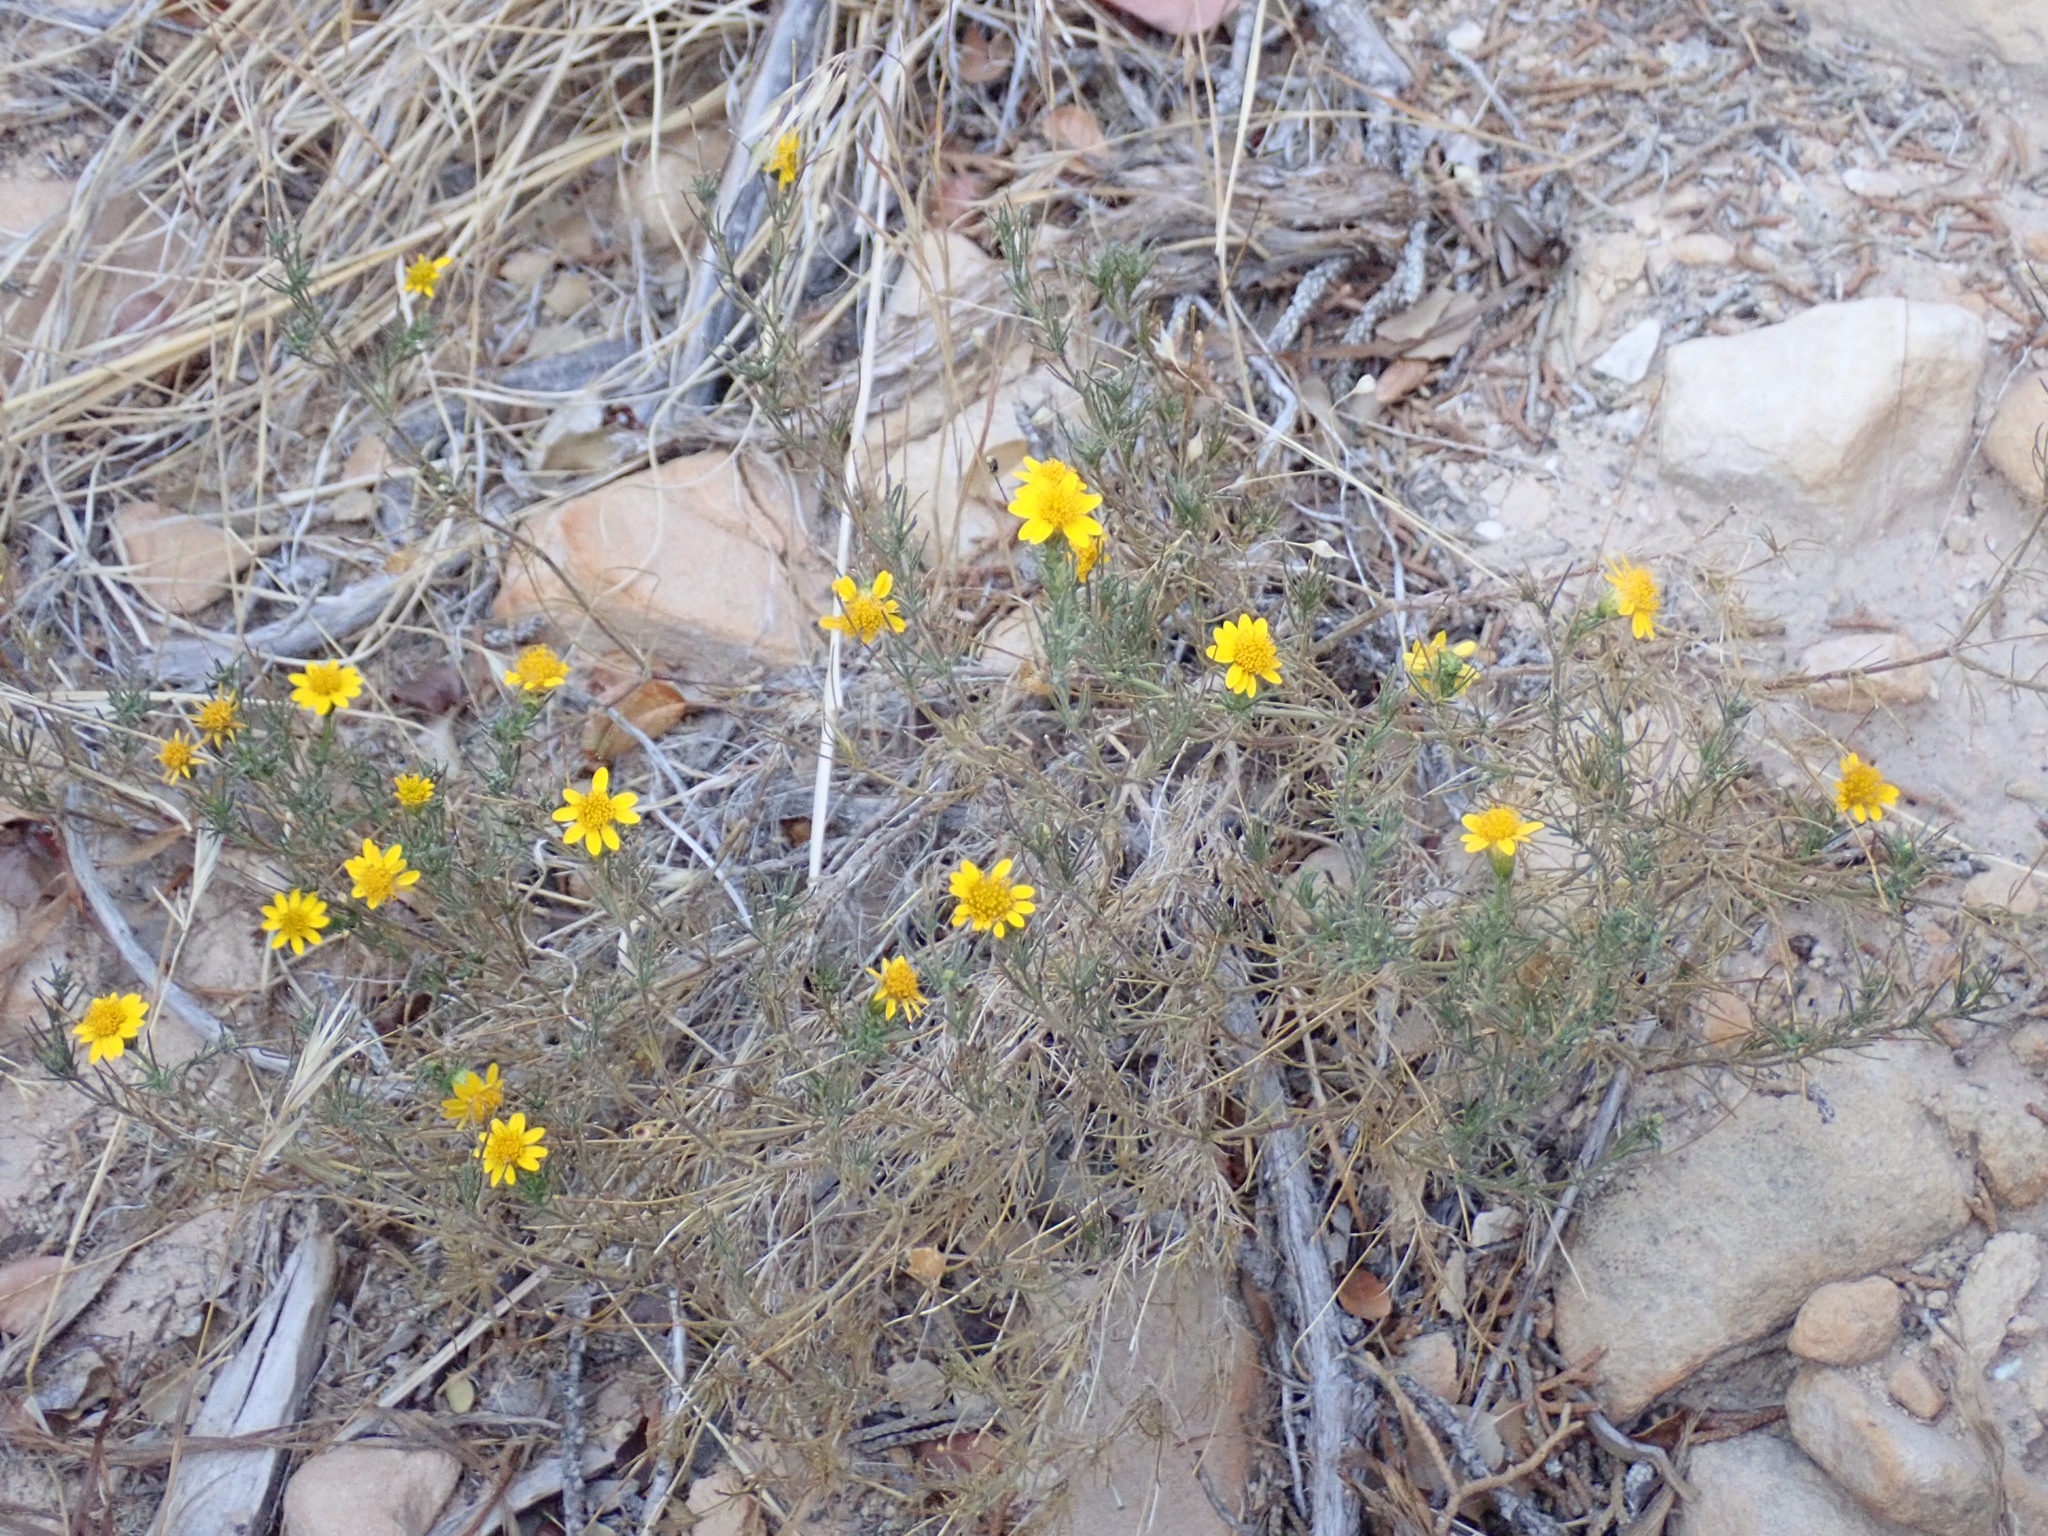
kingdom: Plantae
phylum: Tracheophyta
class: Magnoliopsida
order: Asterales
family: Asteraceae
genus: Thymophylla
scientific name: Thymophylla pentachaeta
